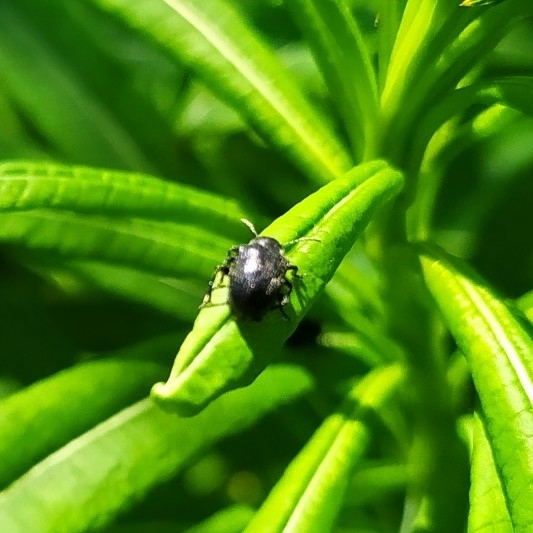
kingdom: Animalia
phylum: Arthropoda
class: Insecta
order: Coleoptera
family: Chrysomelidae
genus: Bromius
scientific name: Bromius obscurus
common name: Western grape rootworm
